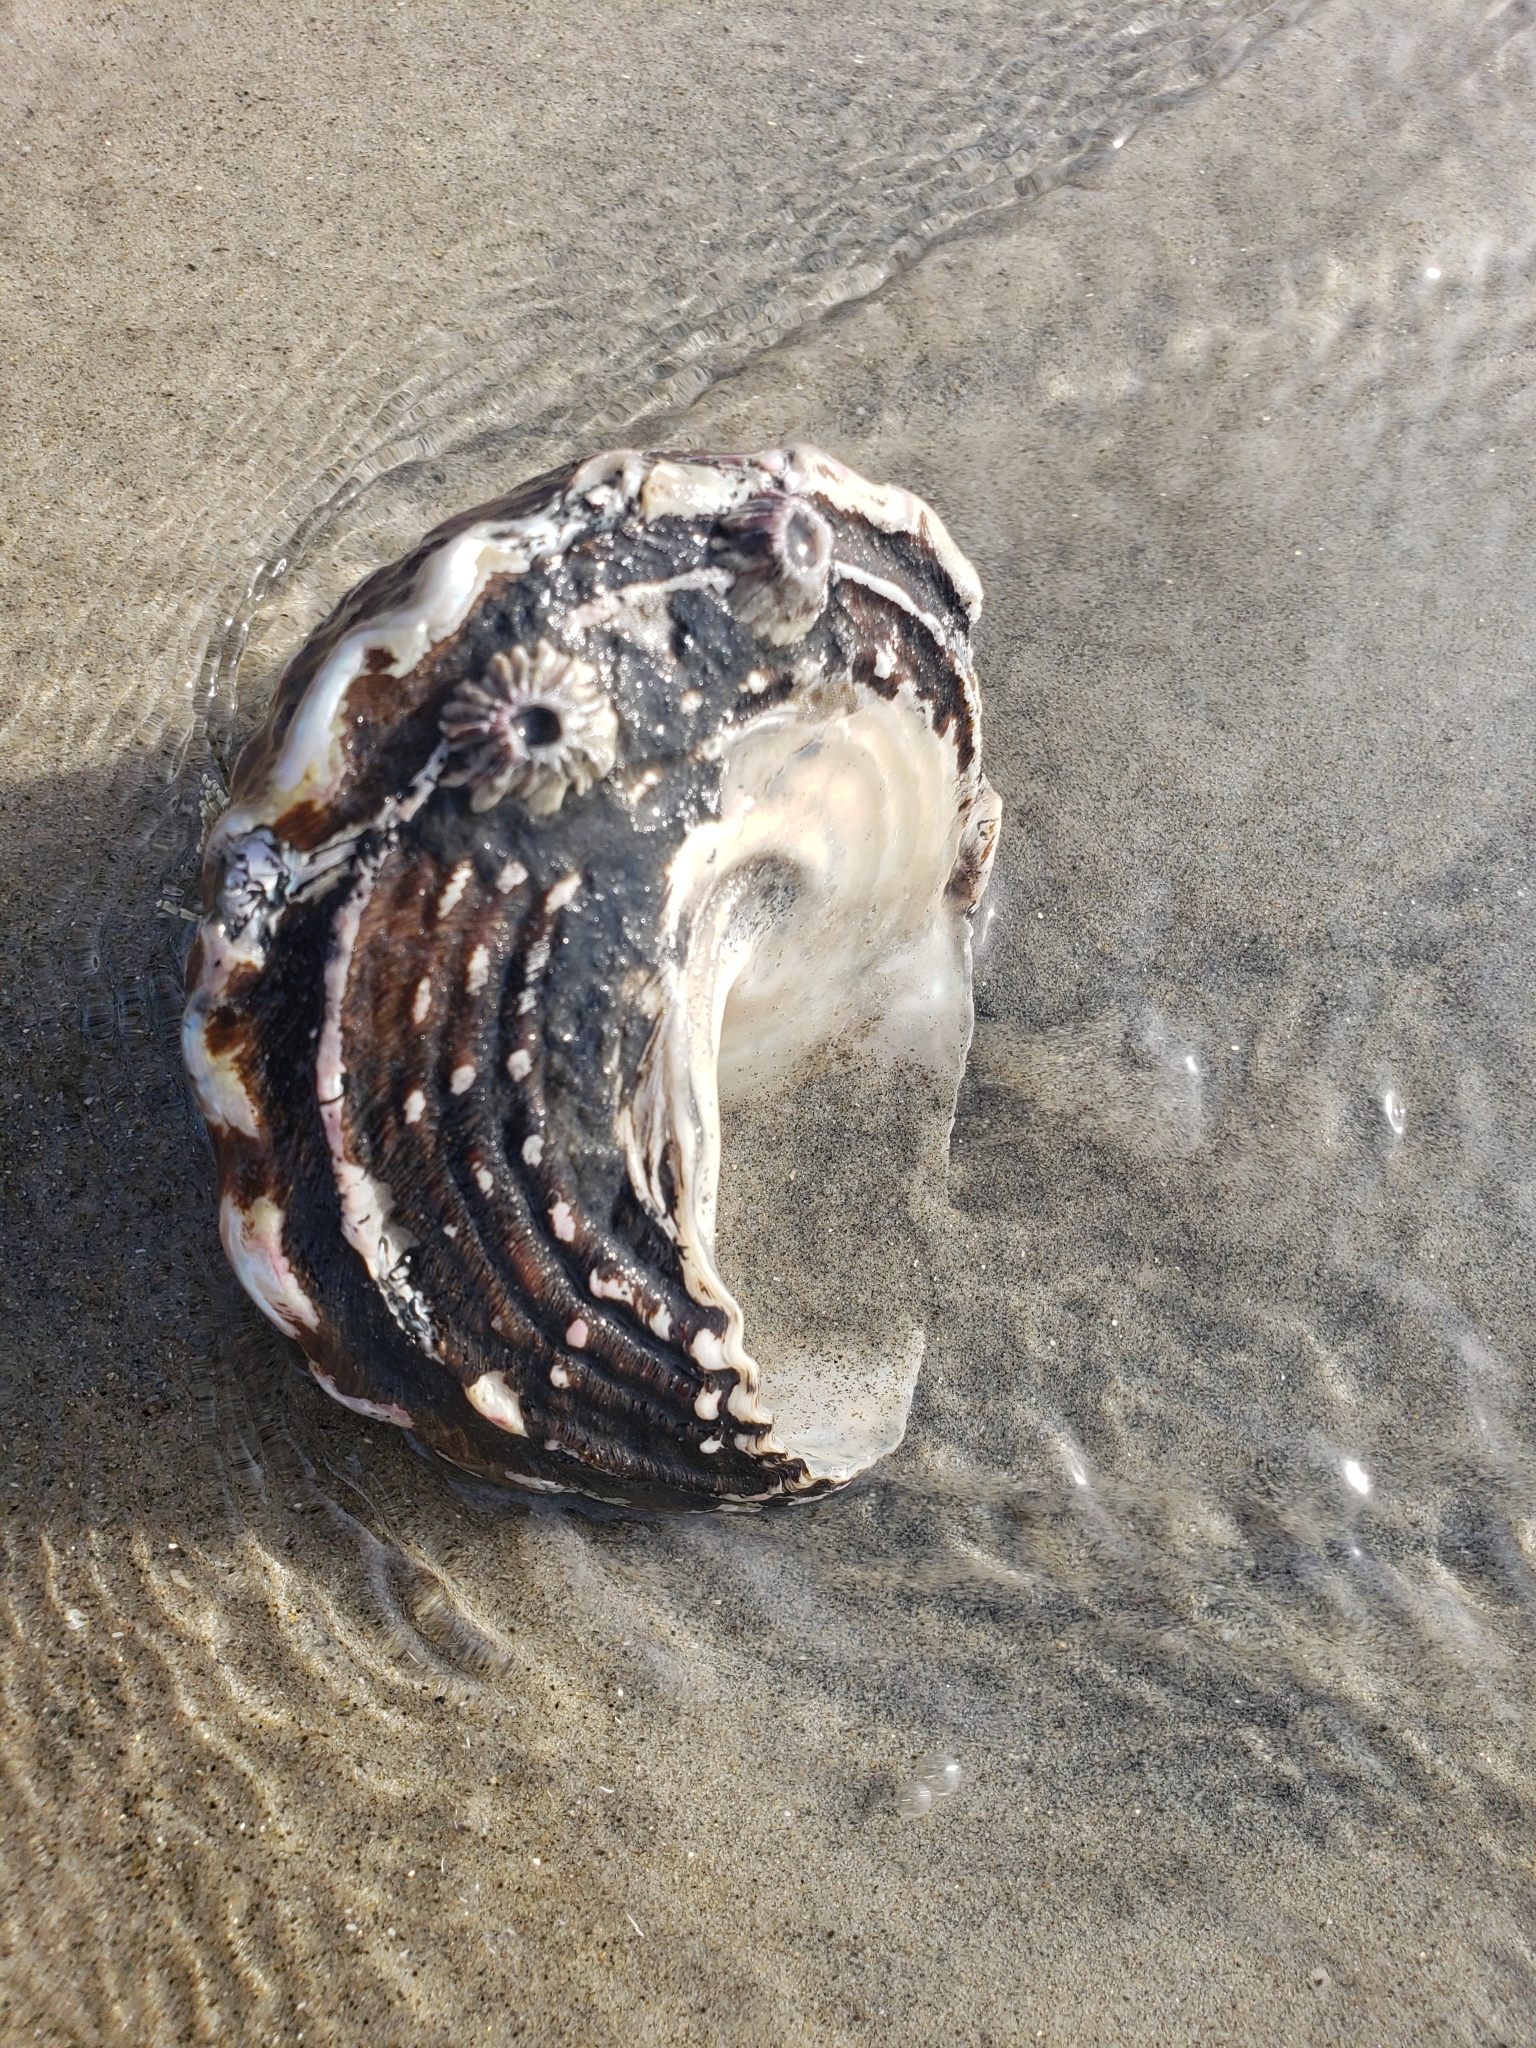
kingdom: Animalia
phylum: Mollusca
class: Gastropoda
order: Trochida
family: Turbinidae
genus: Megastraea
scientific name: Megastraea undosa
